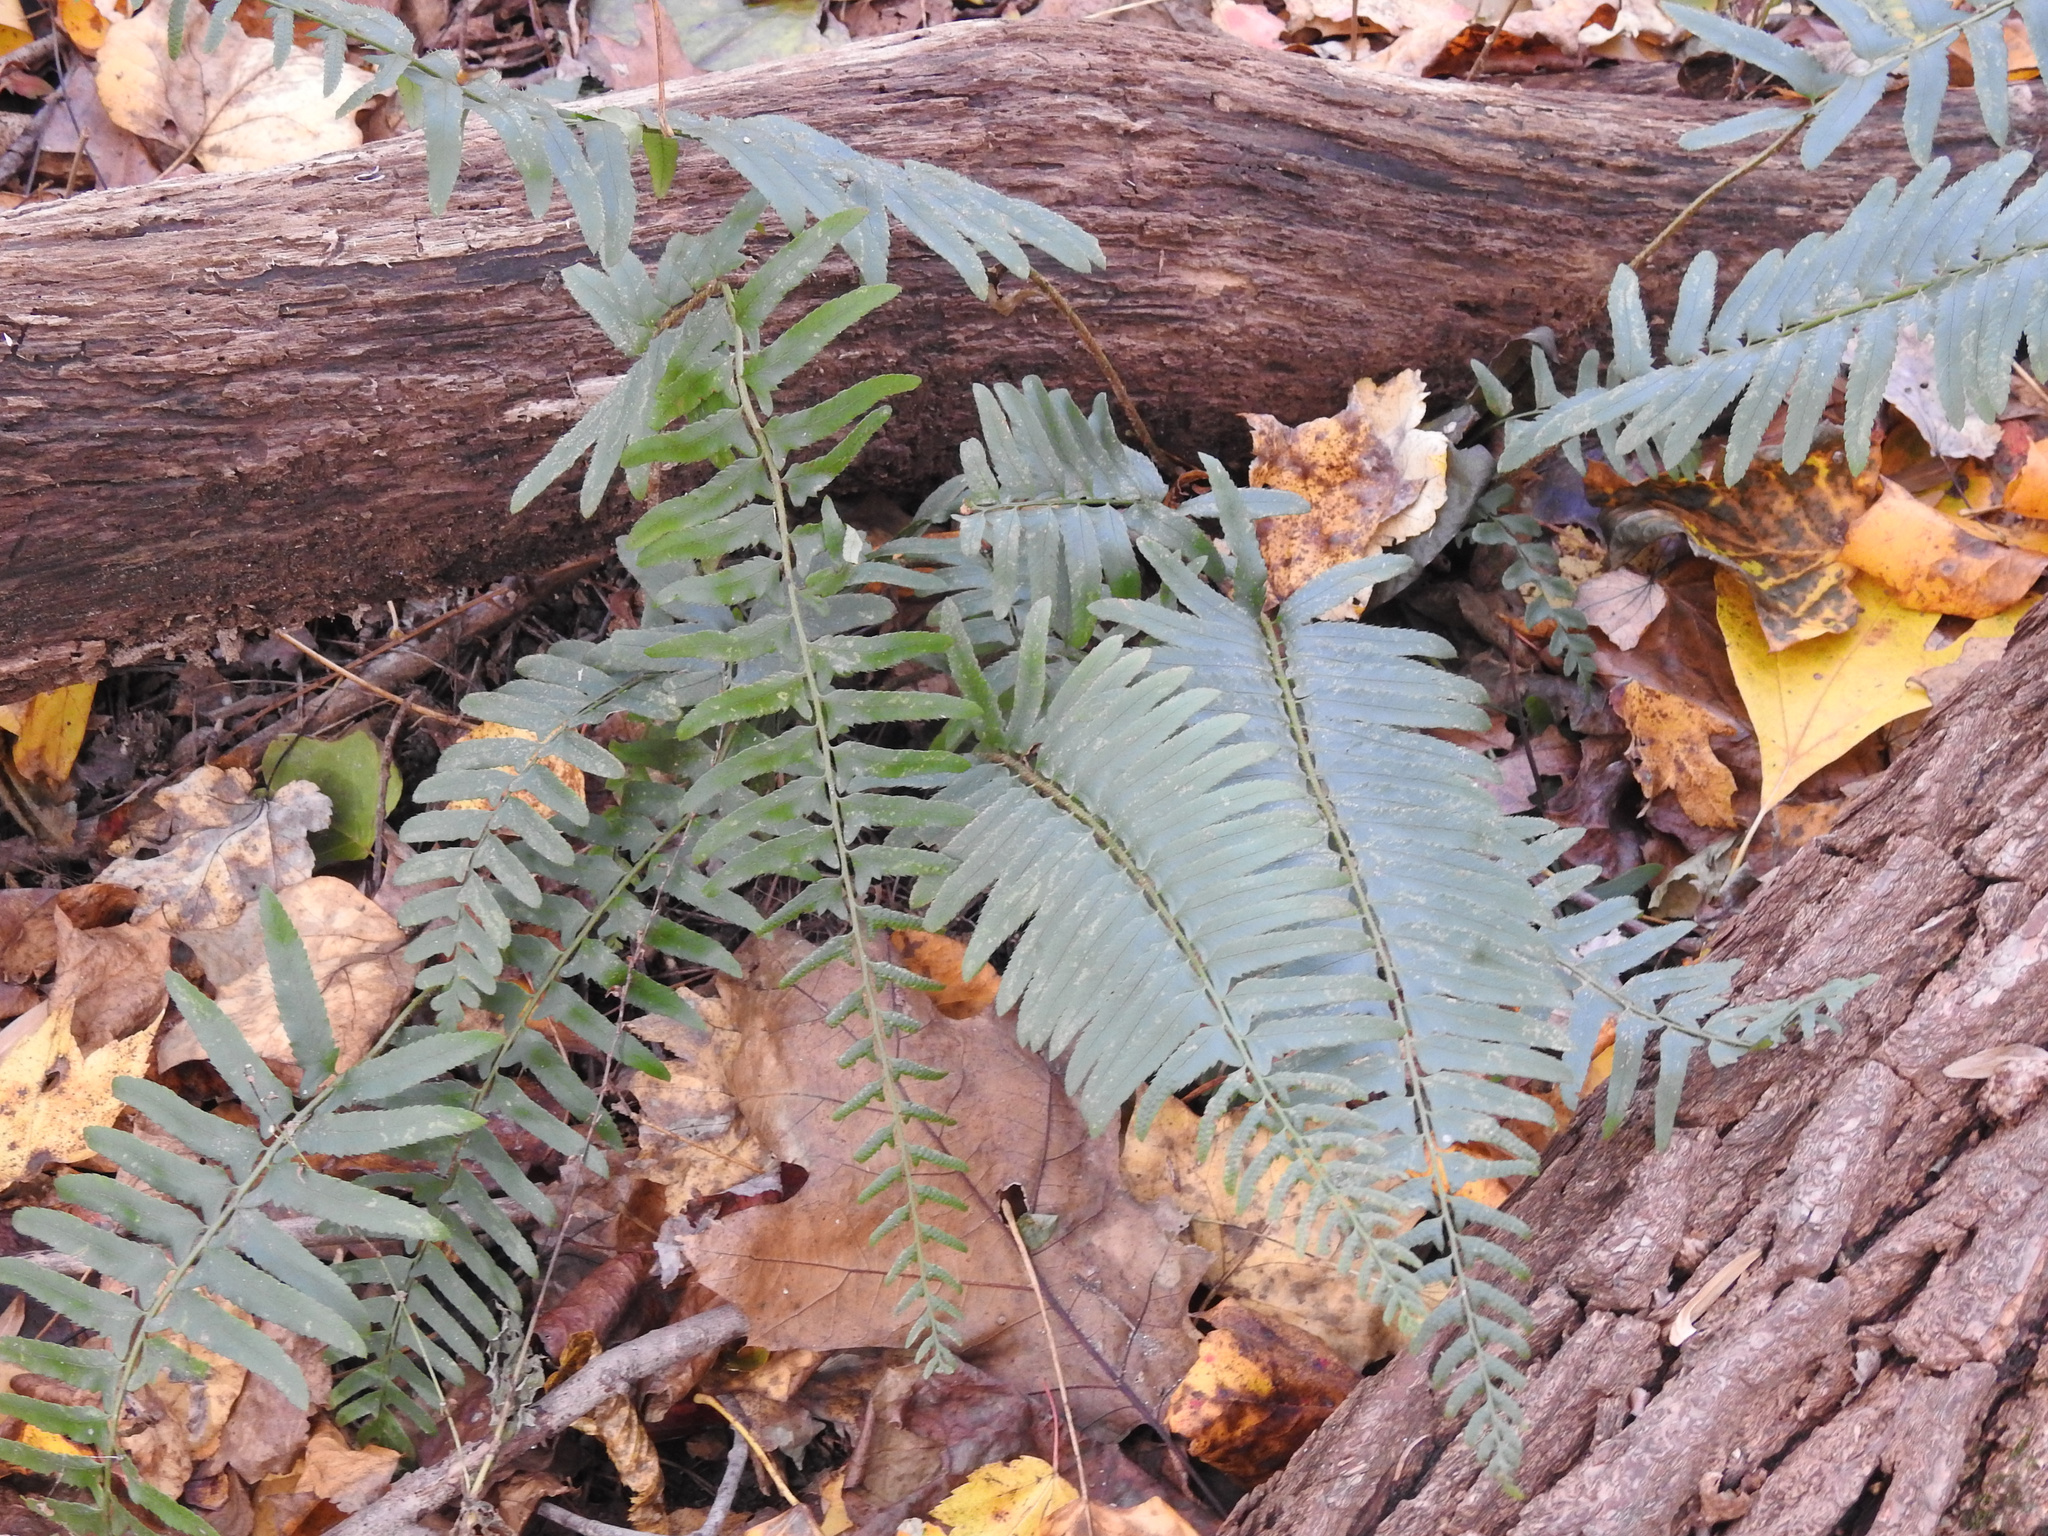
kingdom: Plantae
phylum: Tracheophyta
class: Polypodiopsida
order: Polypodiales
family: Dryopteridaceae
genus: Polystichum
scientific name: Polystichum acrostichoides
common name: Christmas fern
